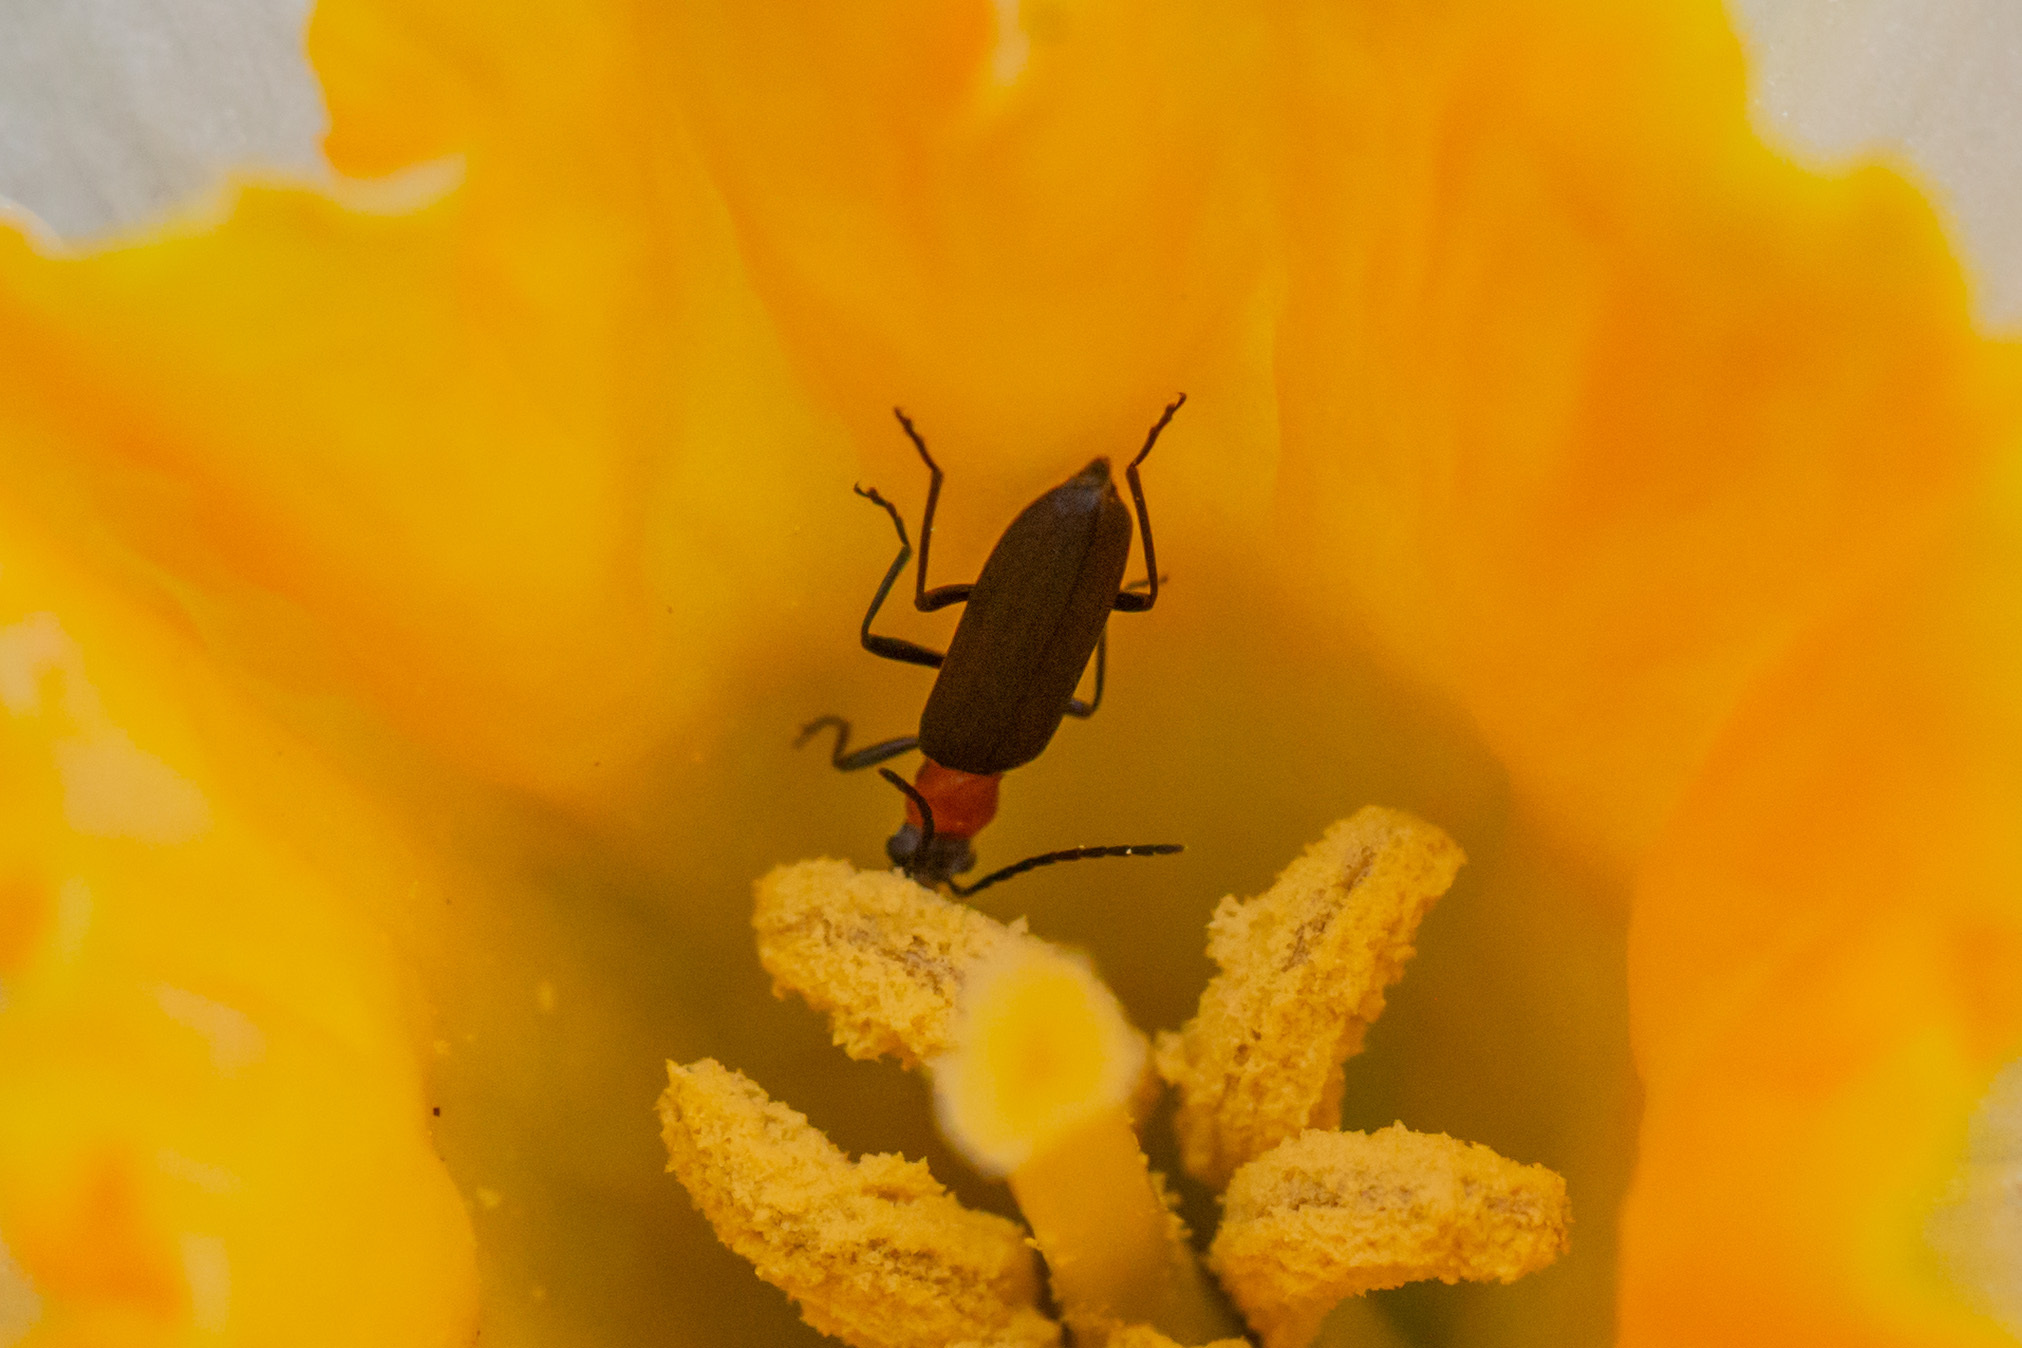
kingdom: Animalia
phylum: Arthropoda
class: Insecta
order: Coleoptera
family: Oedemeridae
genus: Ischnomera
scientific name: Ischnomera
